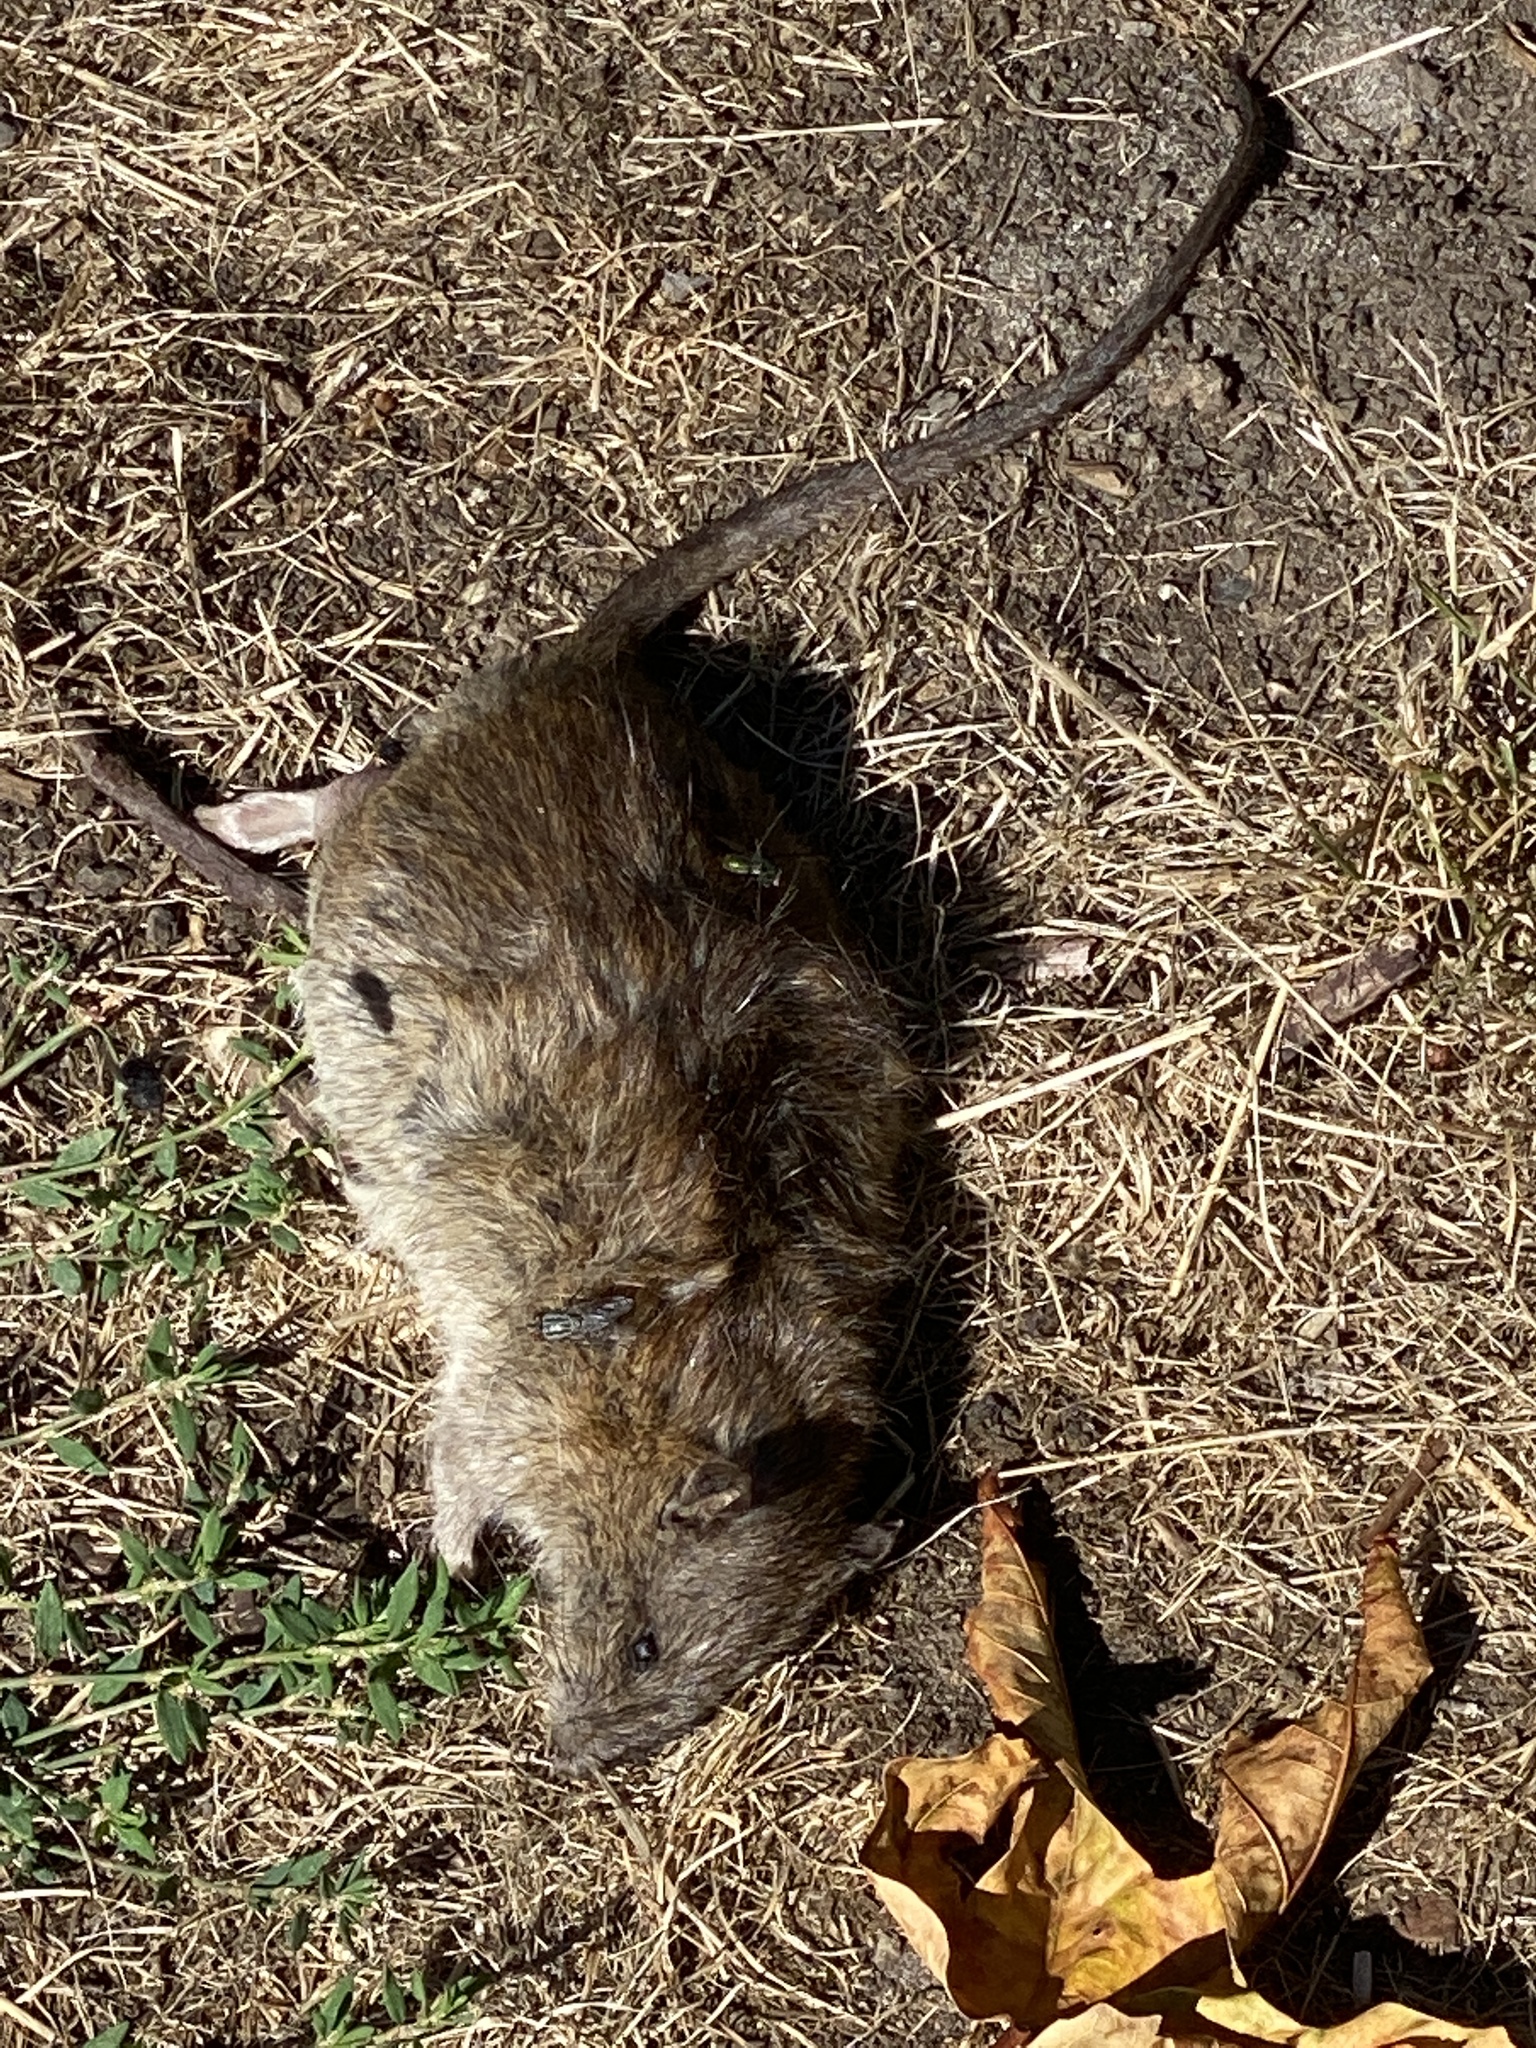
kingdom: Animalia
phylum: Chordata
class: Mammalia
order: Rodentia
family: Muridae
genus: Rattus
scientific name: Rattus norvegicus
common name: Brown rat
